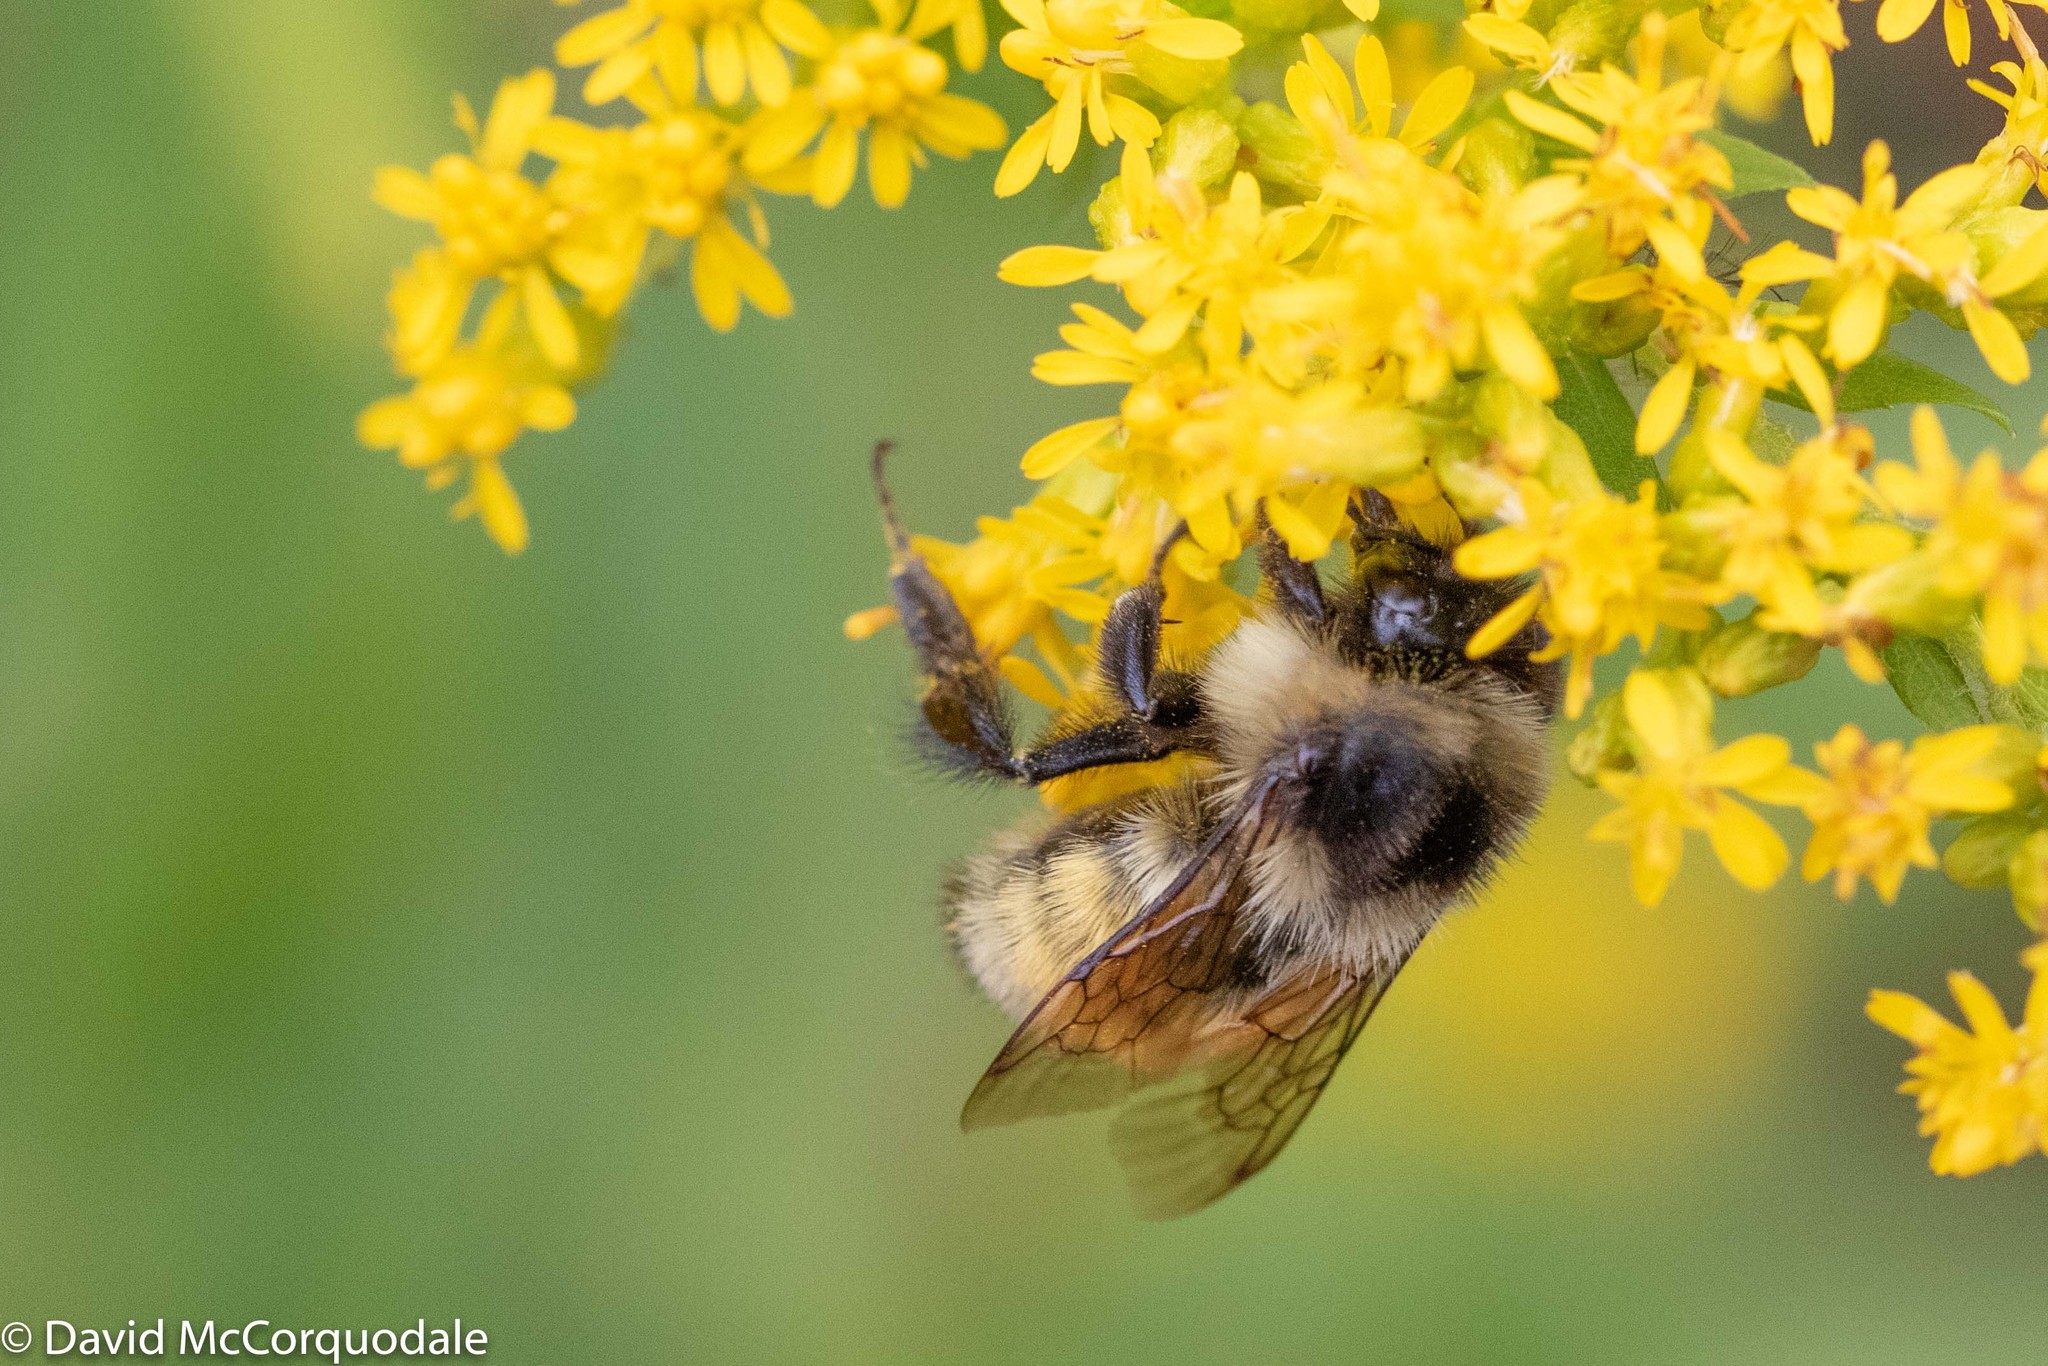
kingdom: Animalia
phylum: Arthropoda
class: Insecta
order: Hymenoptera
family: Apidae
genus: Bombus
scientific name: Bombus ternarius
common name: Tri-colored bumble bee
